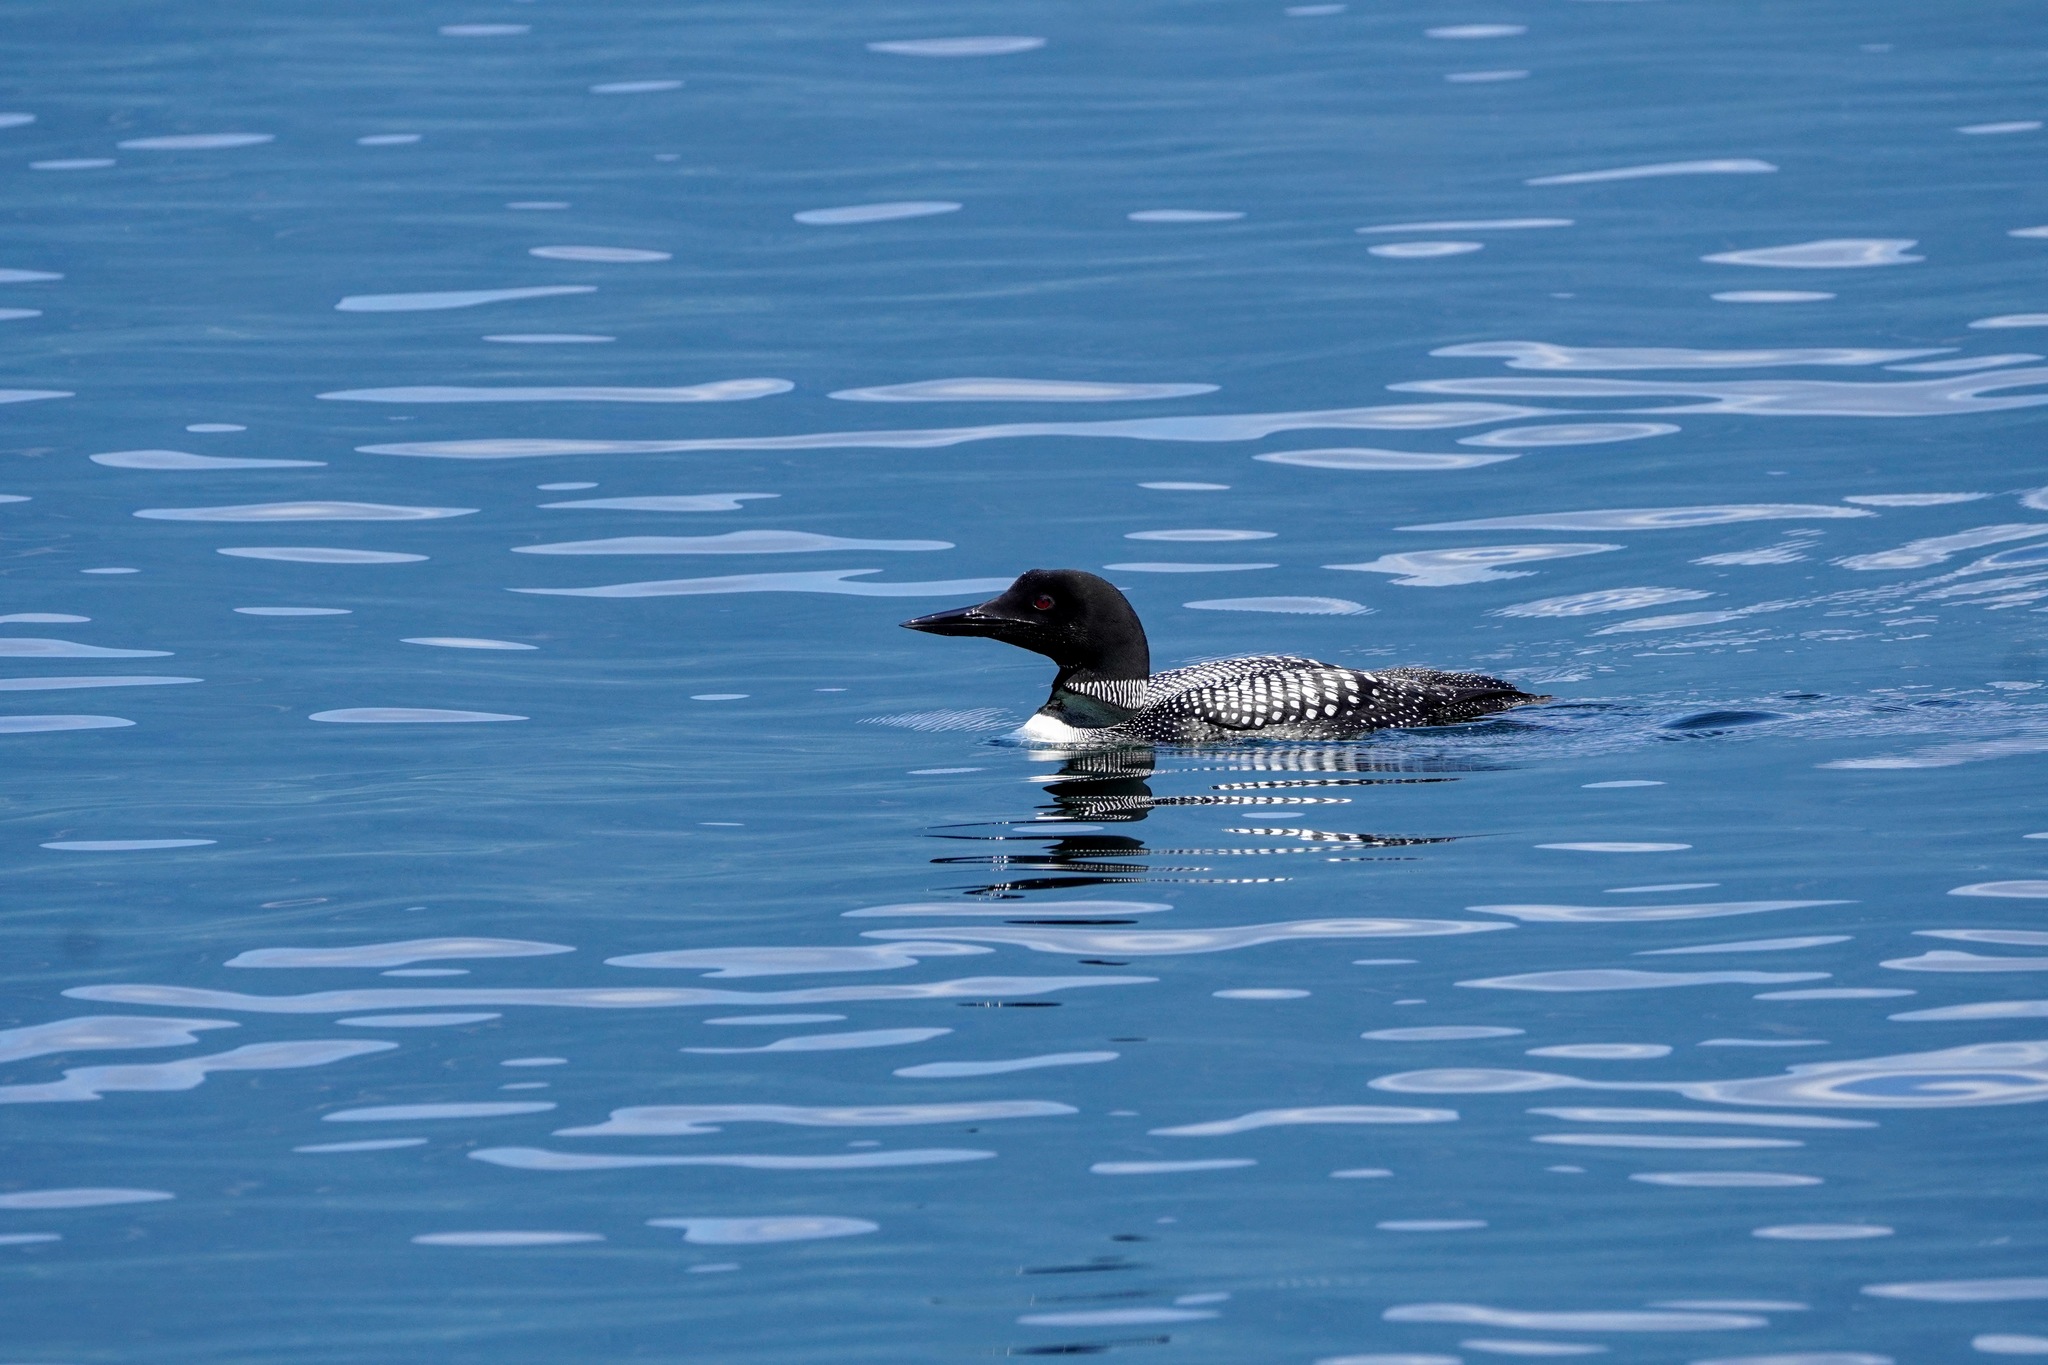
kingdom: Animalia
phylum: Chordata
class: Aves
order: Gaviiformes
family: Gaviidae
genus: Gavia
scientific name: Gavia immer
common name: Common loon
